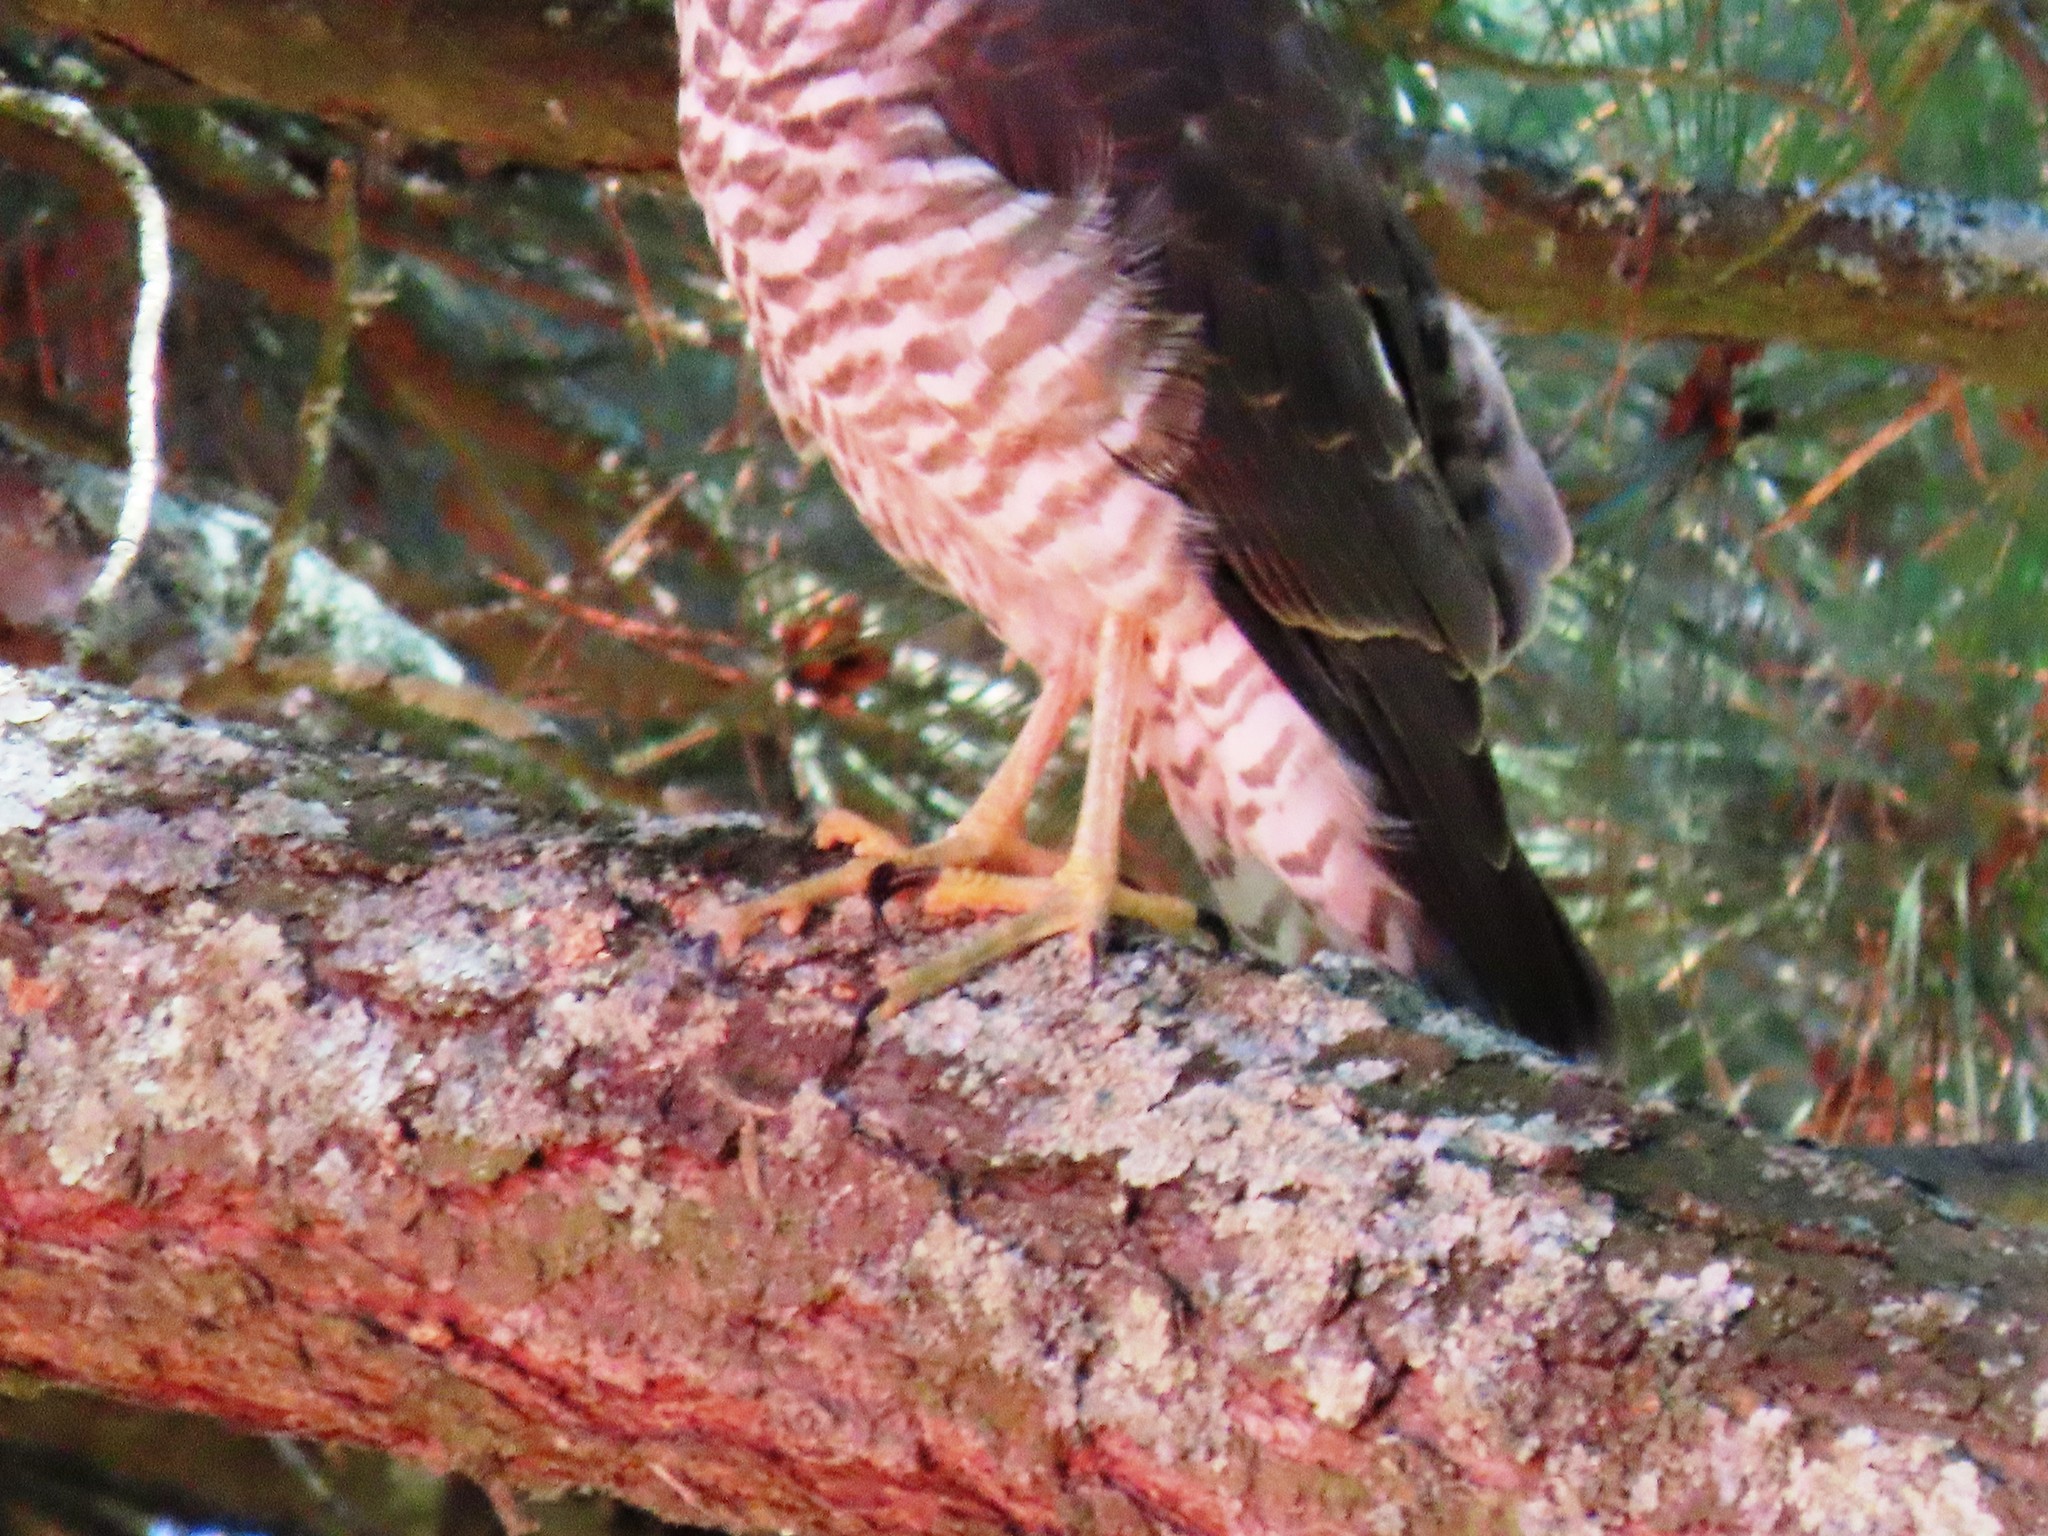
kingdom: Animalia
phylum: Chordata
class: Aves
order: Accipitriformes
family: Accipitridae
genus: Accipiter
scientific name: Accipiter cirrocephalus
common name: Collared sparrowhawk
